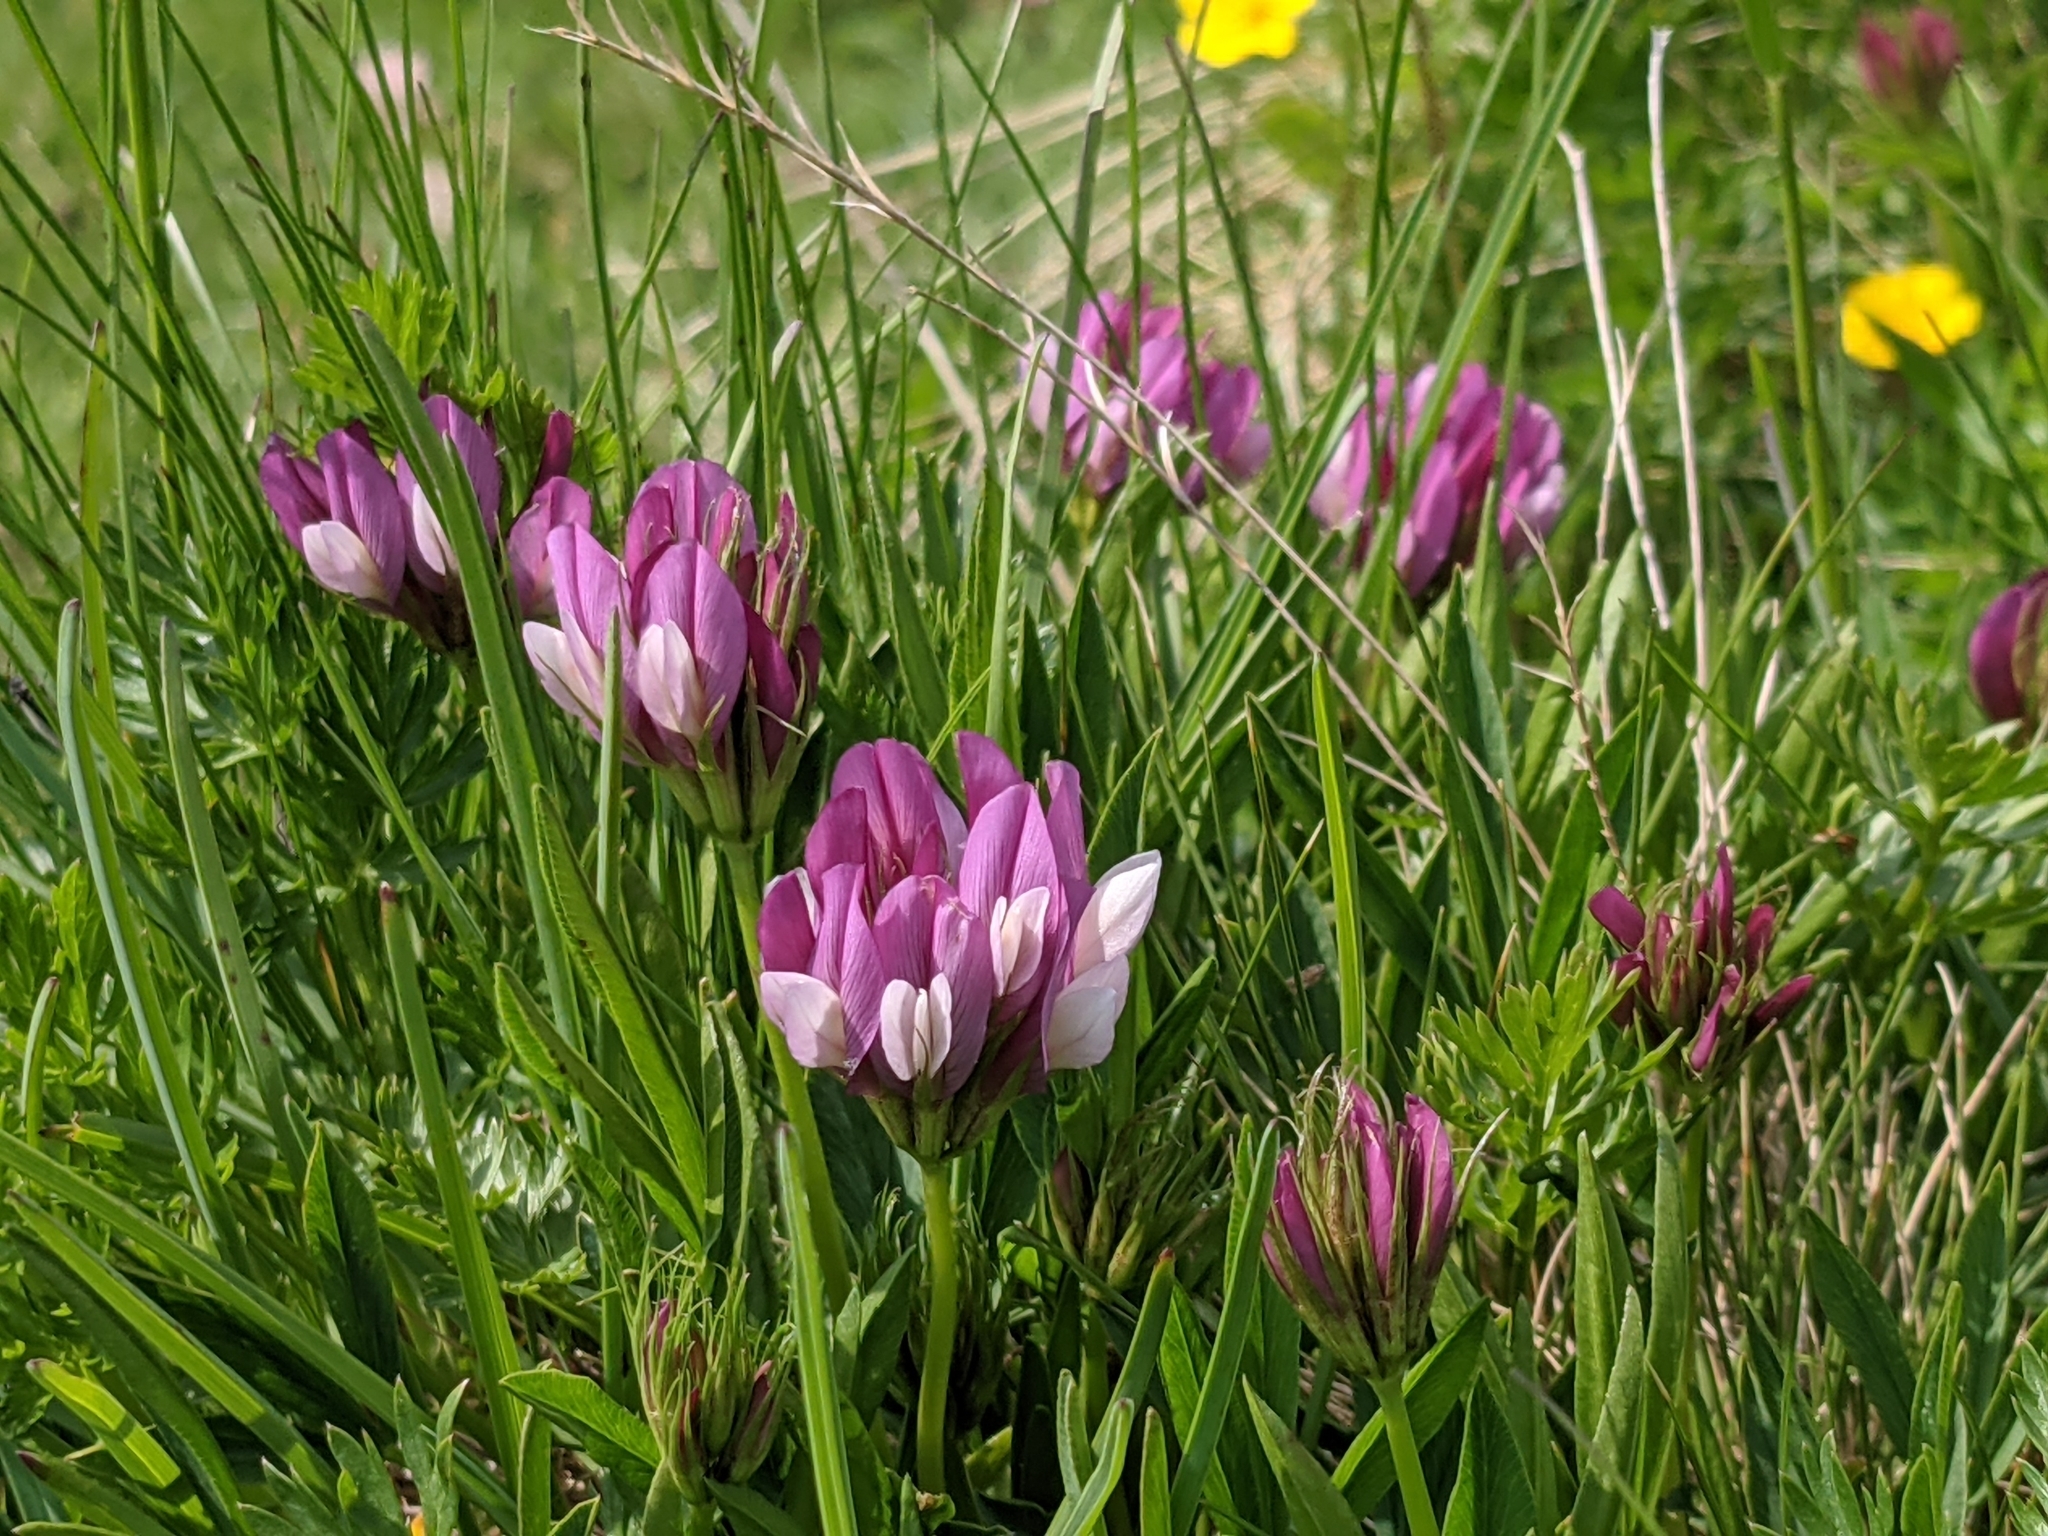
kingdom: Plantae
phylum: Tracheophyta
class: Magnoliopsida
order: Fabales
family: Fabaceae
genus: Trifolium
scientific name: Trifolium alpinum
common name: Alpine clover
